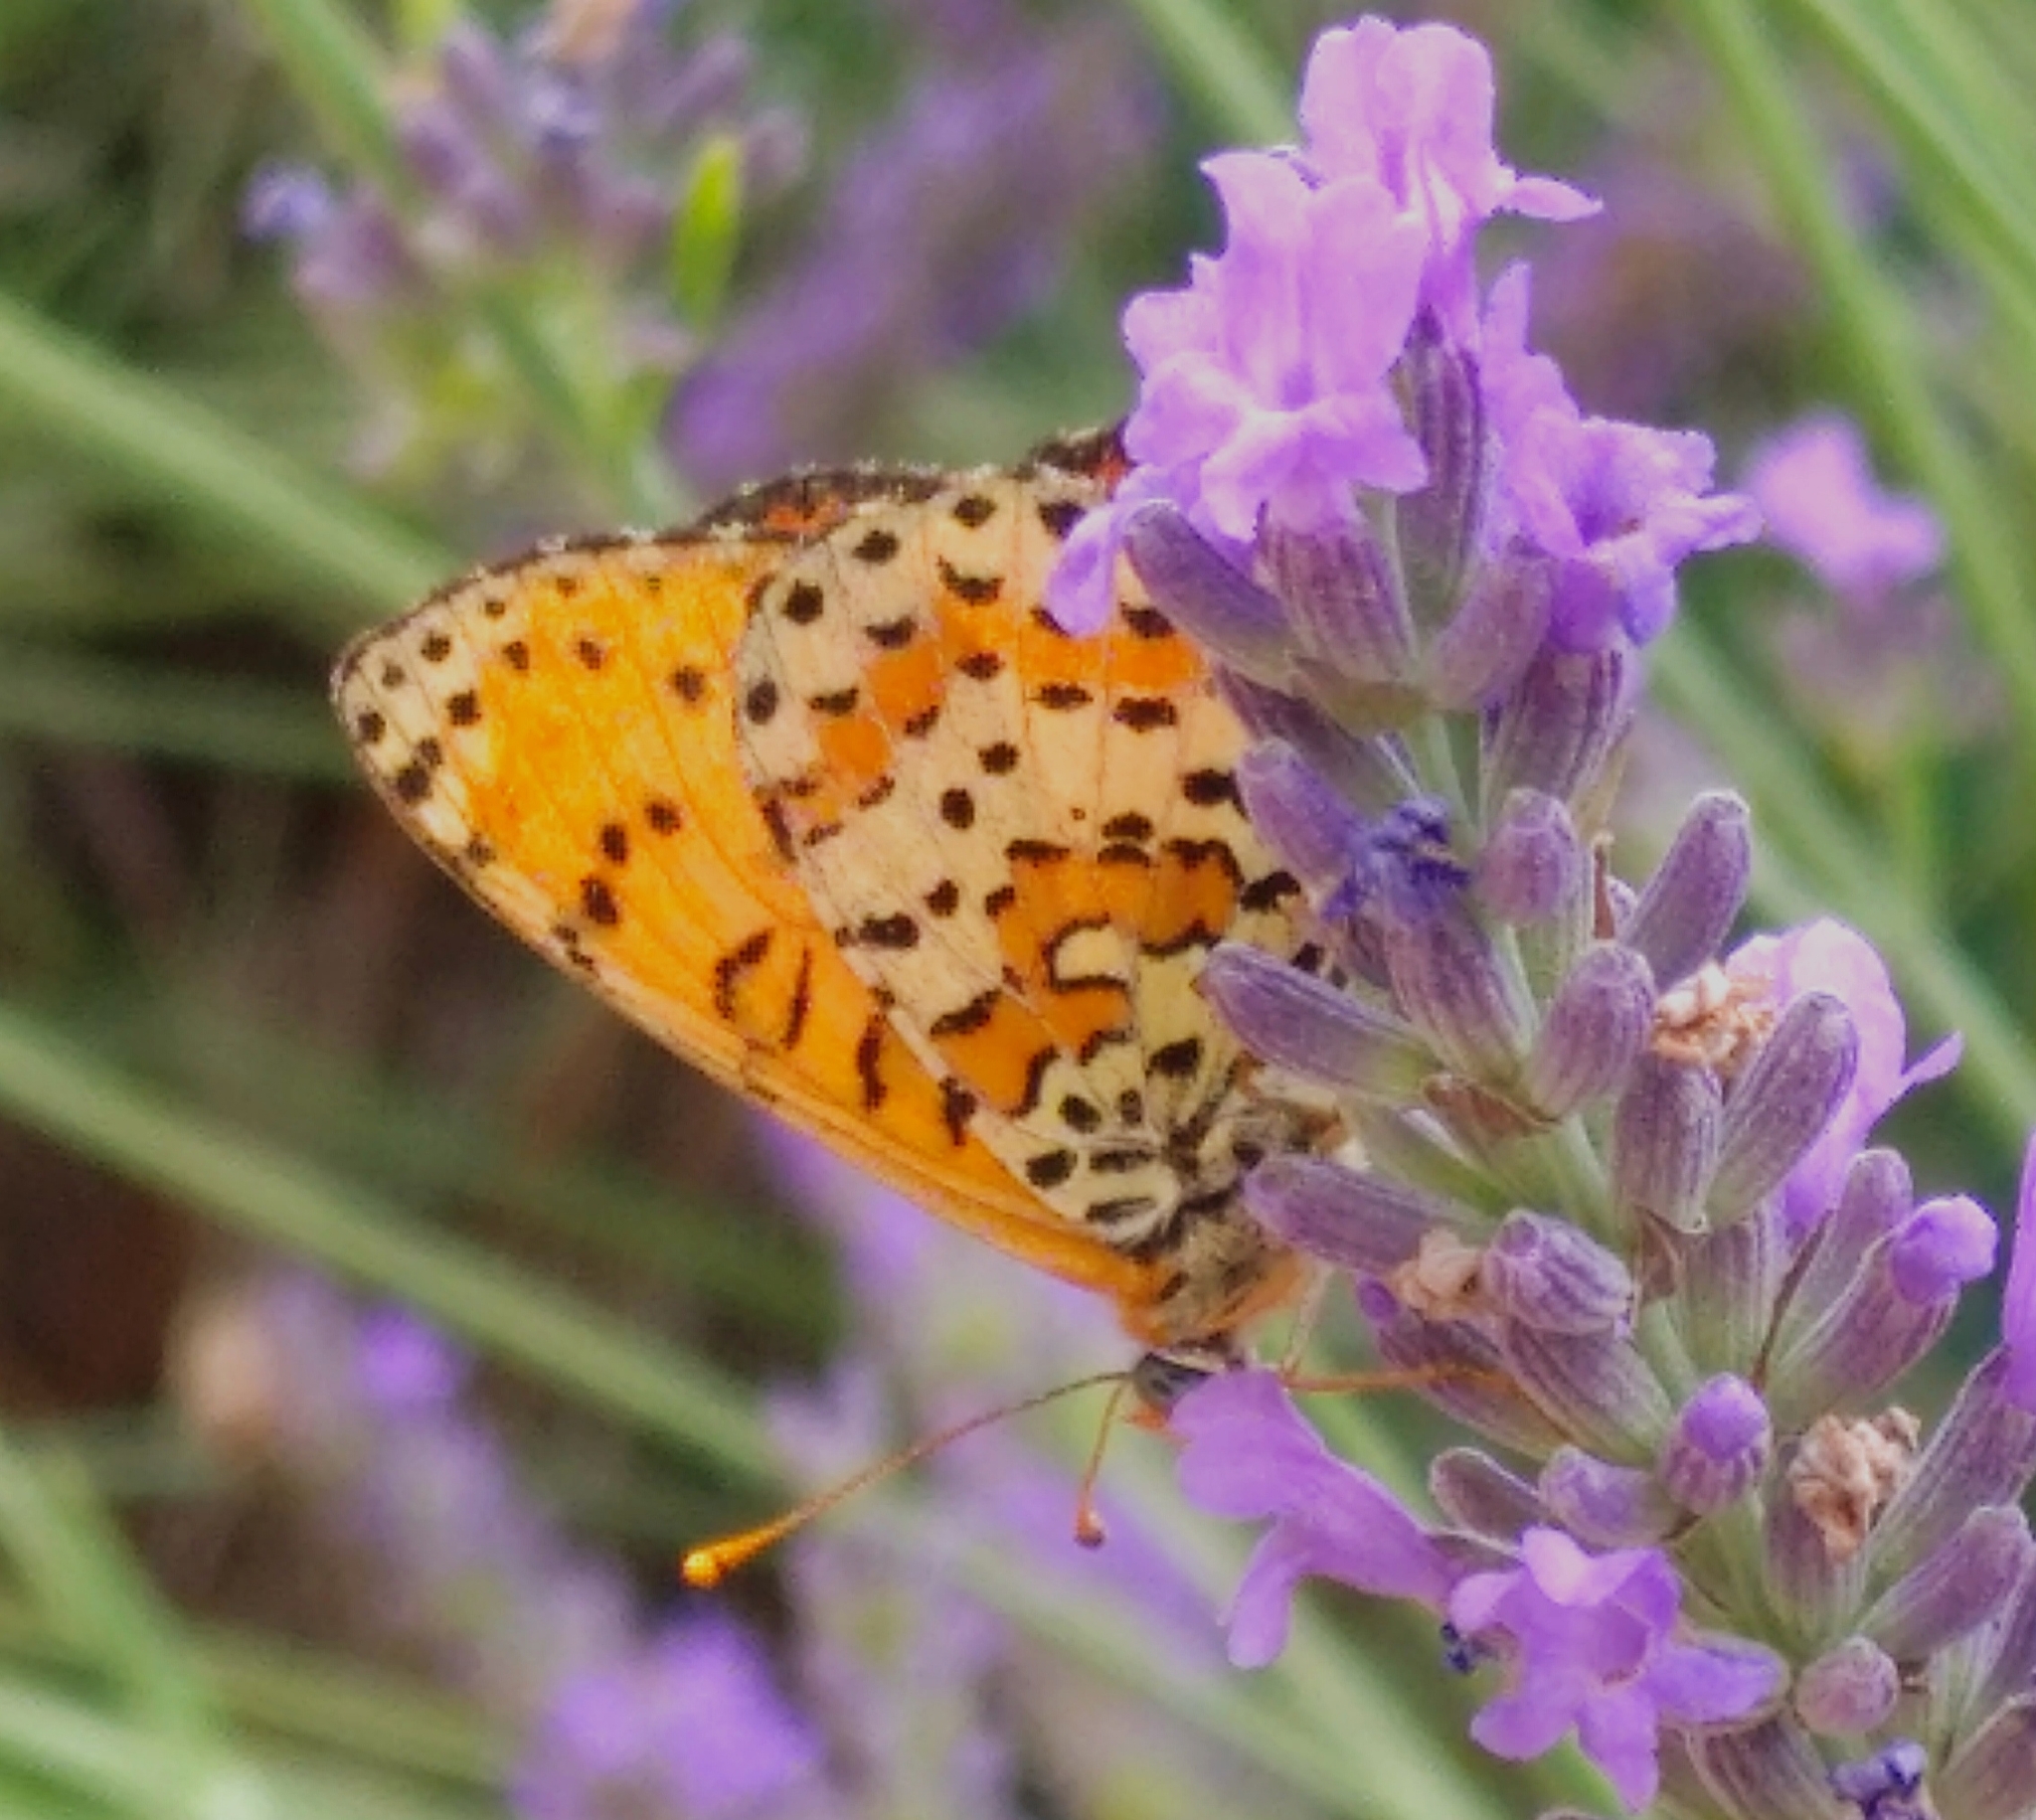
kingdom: Animalia
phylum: Arthropoda
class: Insecta
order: Lepidoptera
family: Nymphalidae
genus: Melitaea
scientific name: Melitaea didyma
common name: Spotted fritillary
